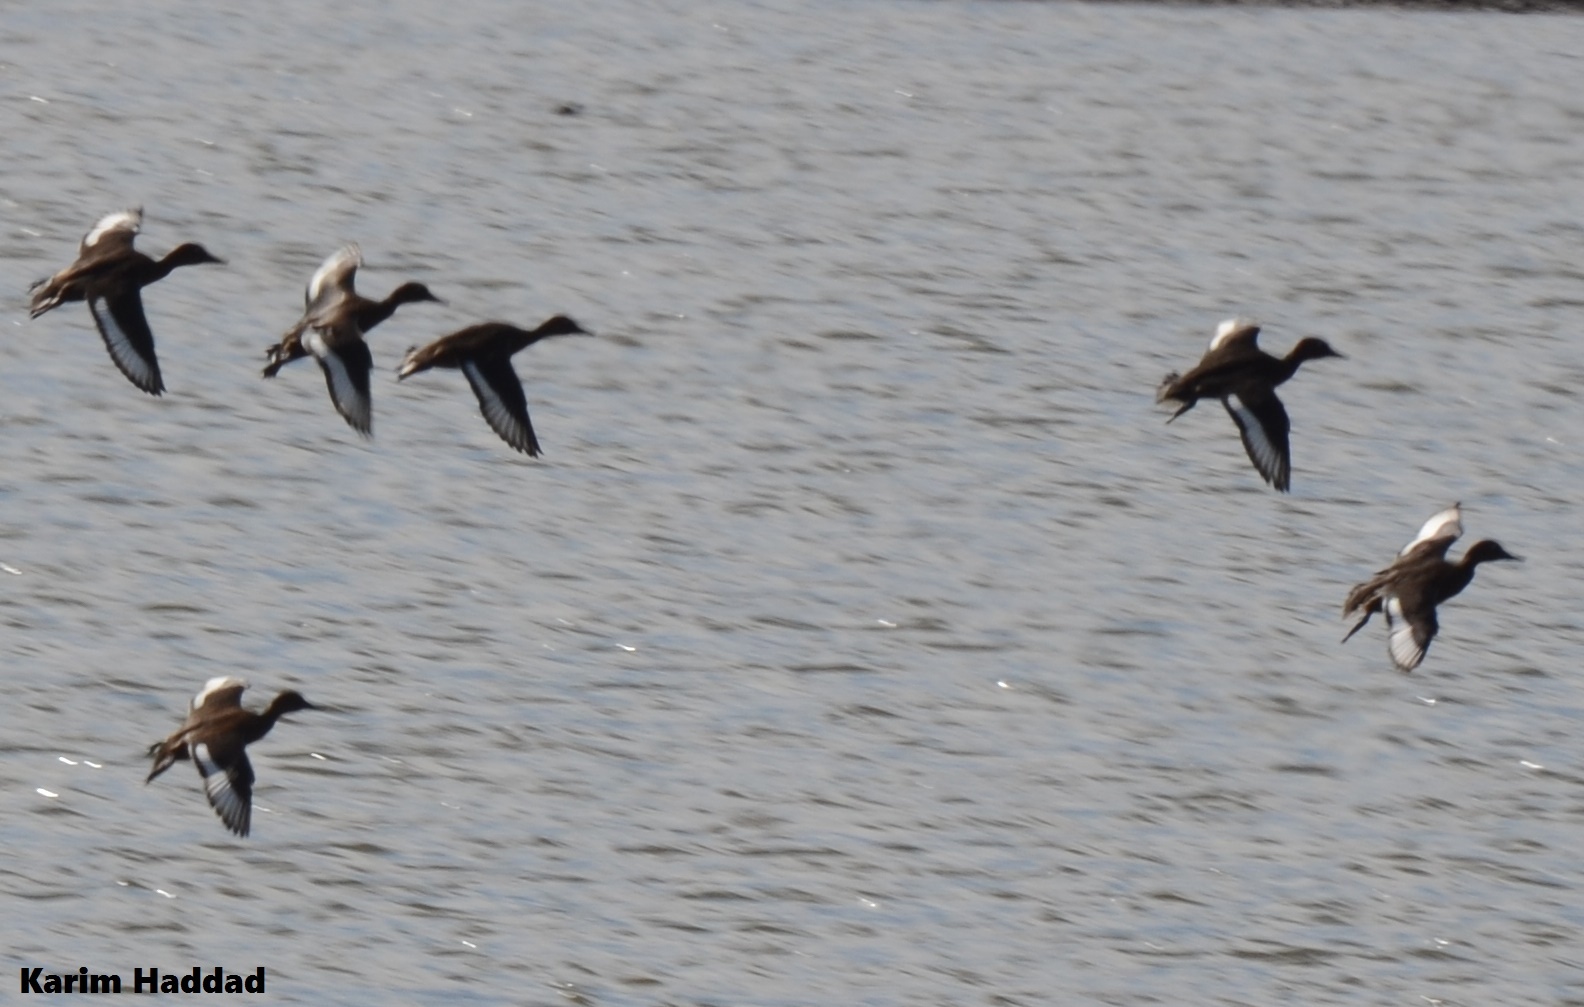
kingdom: Animalia
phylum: Chordata
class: Aves
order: Anseriformes
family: Anatidae
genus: Aythya
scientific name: Aythya nyroca
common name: Ferruginous duck
